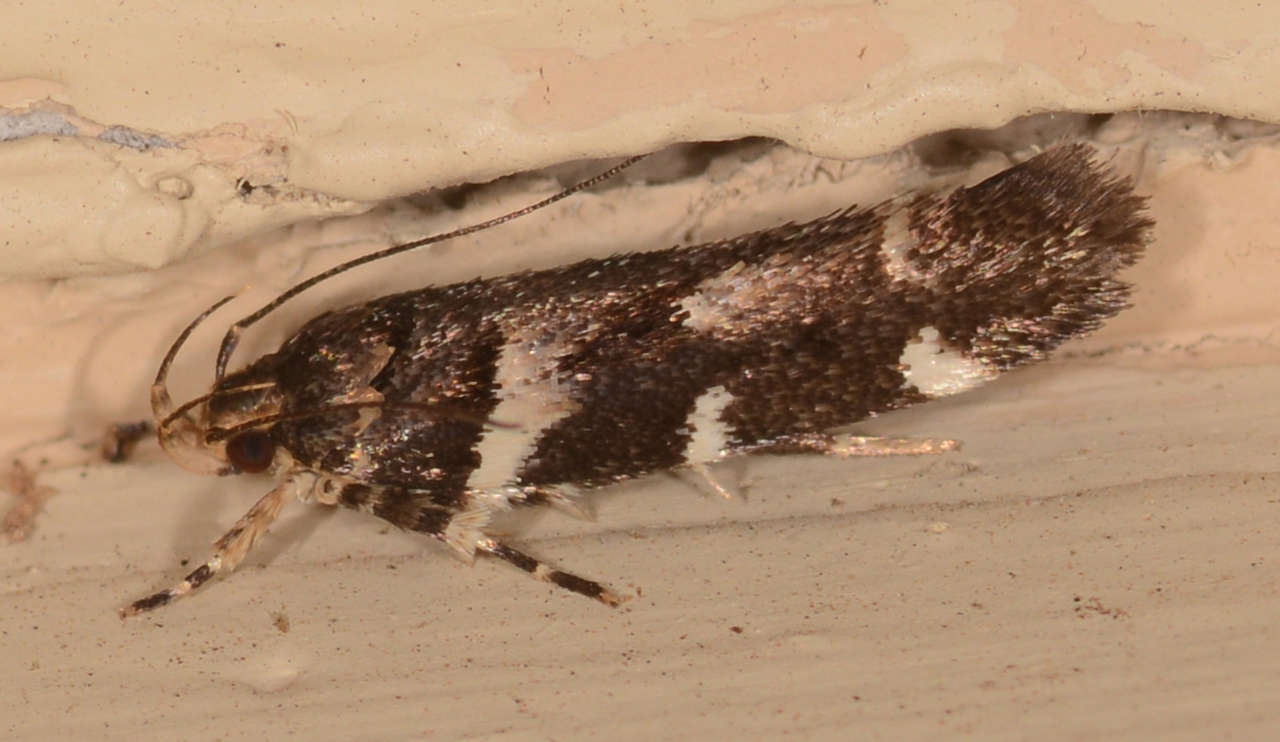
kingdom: Animalia
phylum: Arthropoda
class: Insecta
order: Lepidoptera
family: Cosmopterigidae
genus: Macrobathra
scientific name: Macrobathra ceraunobola
